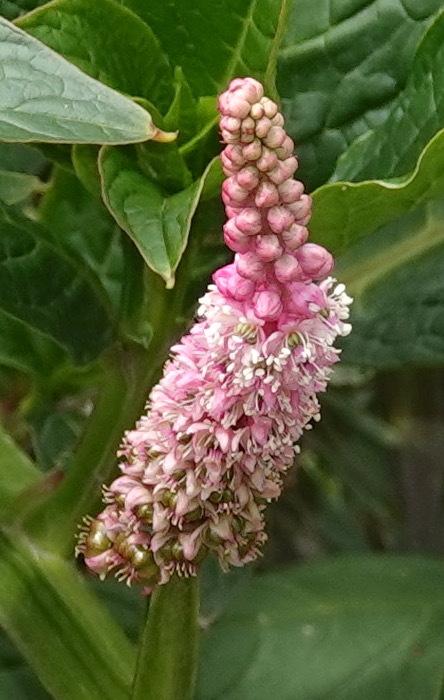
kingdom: Plantae
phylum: Tracheophyta
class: Magnoliopsida
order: Caryophyllales
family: Phytolaccaceae
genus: Phytolacca
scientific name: Phytolacca bogotensis
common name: Southern pokeweed
